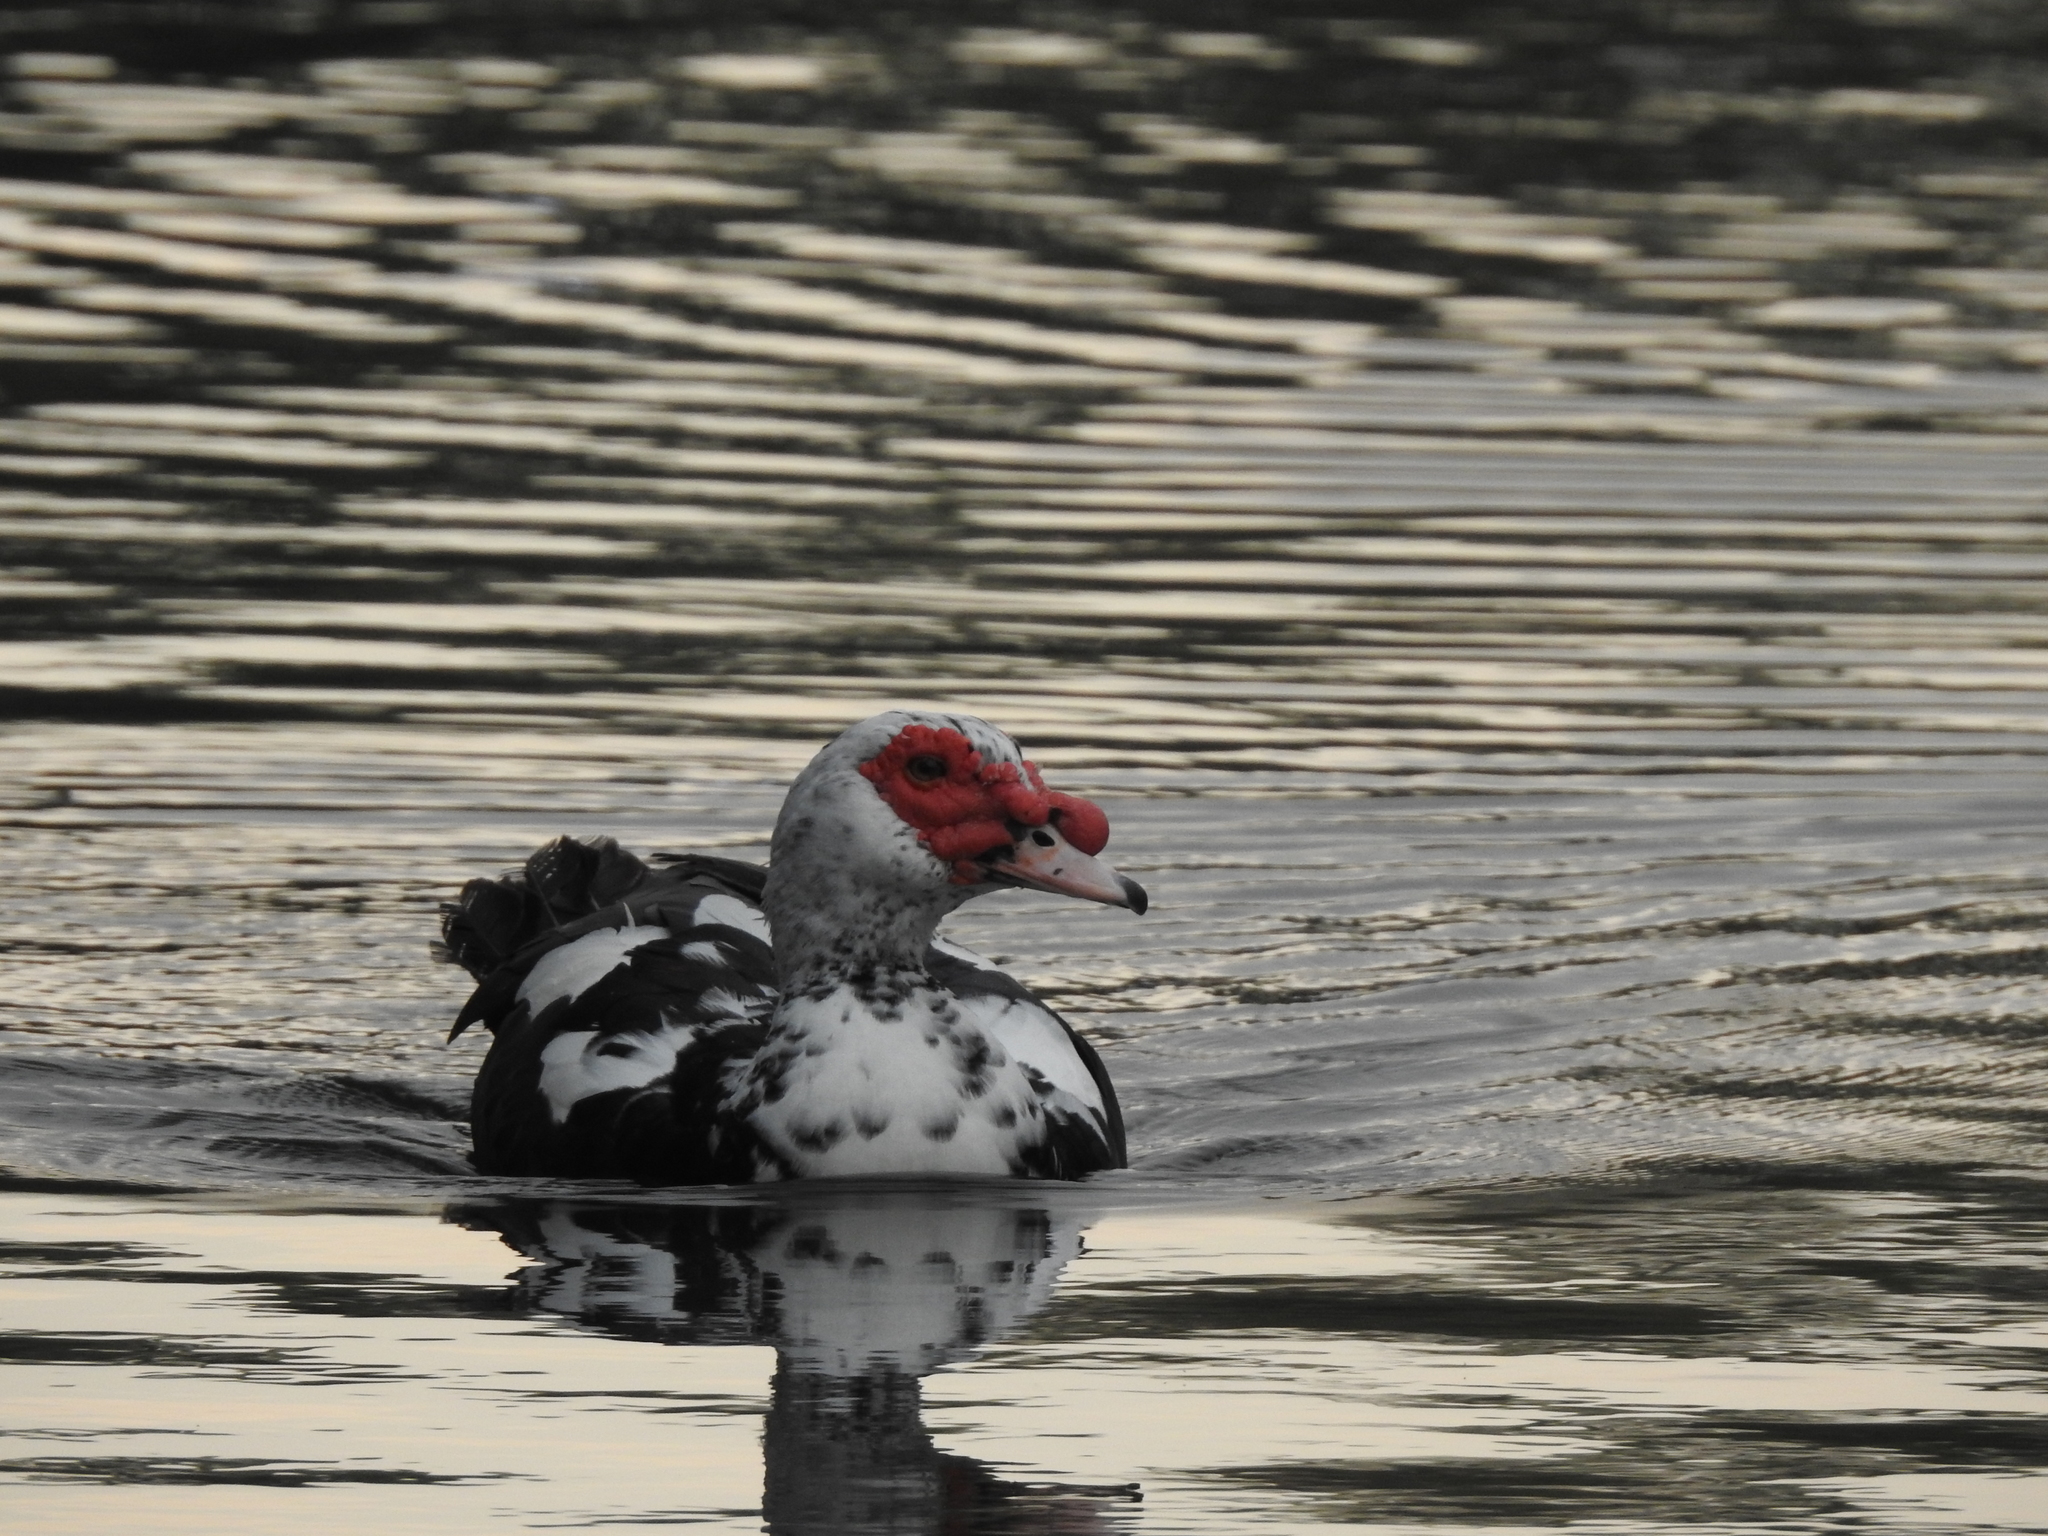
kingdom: Animalia
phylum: Chordata
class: Aves
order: Anseriformes
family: Anatidae
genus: Cairina
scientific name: Cairina moschata
